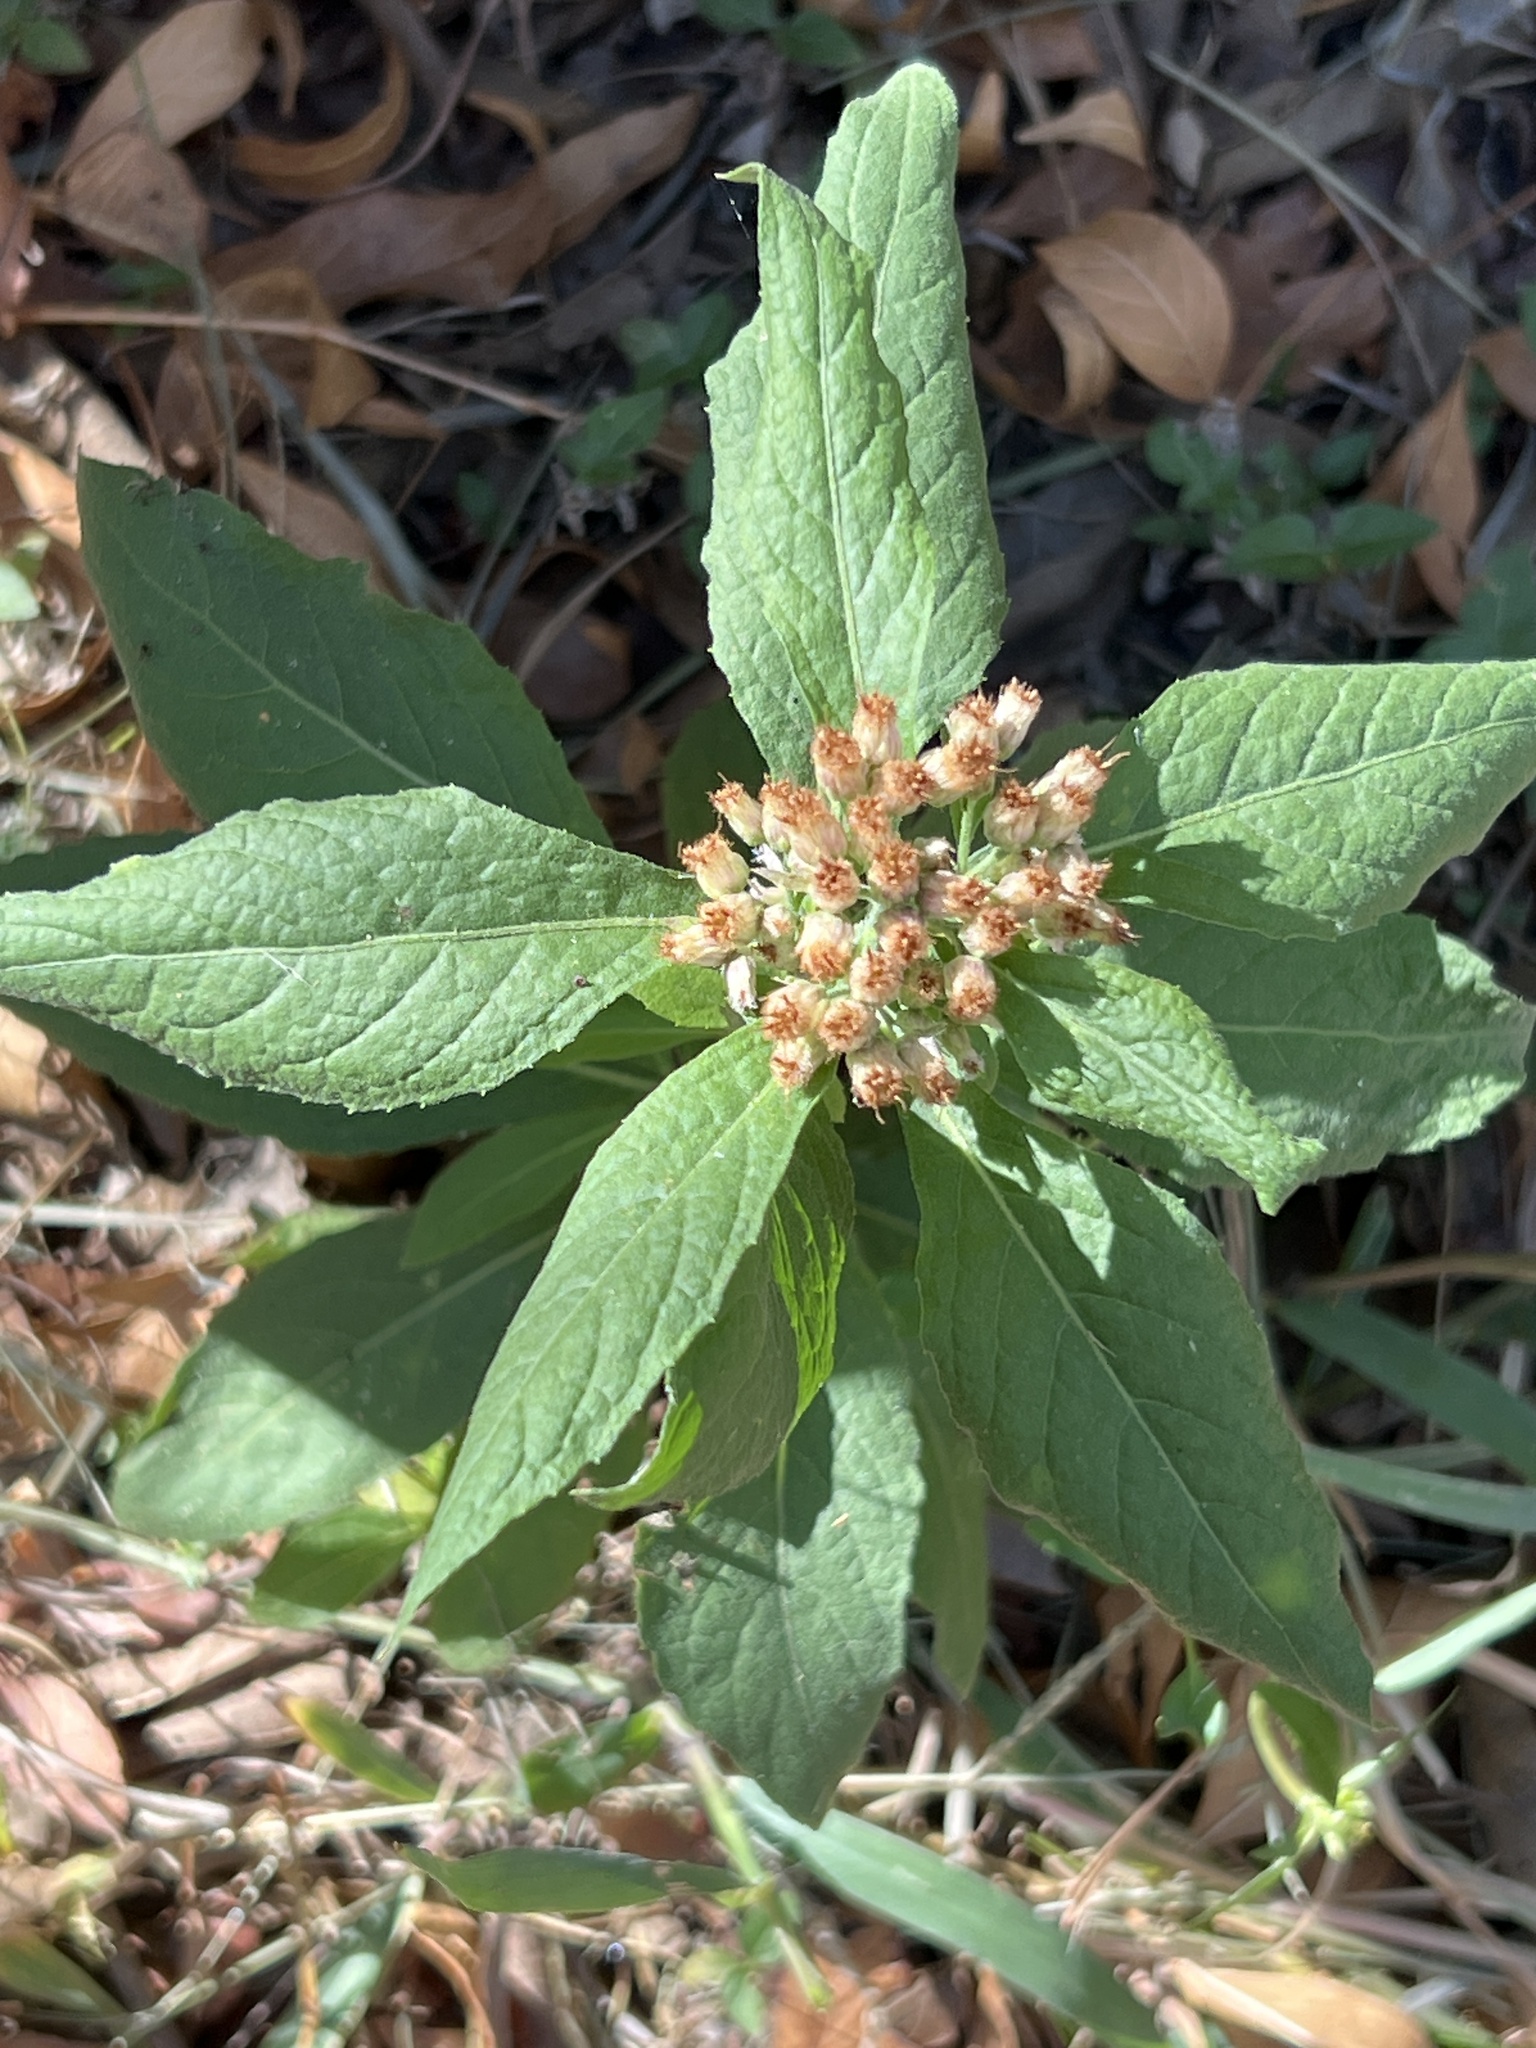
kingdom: Plantae
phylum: Tracheophyta
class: Magnoliopsida
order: Asterales
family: Asteraceae
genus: Pluchea
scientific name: Pluchea camphorata
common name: Camphor pluchea
